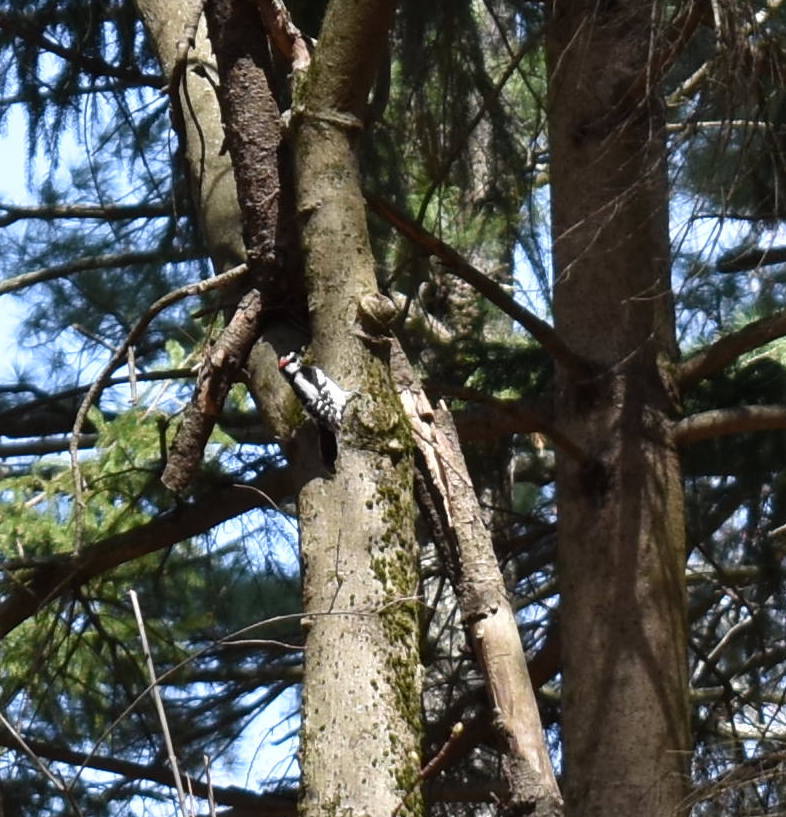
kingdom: Animalia
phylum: Chordata
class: Aves
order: Piciformes
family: Picidae
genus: Dryobates
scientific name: Dryobates pubescens
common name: Downy woodpecker
